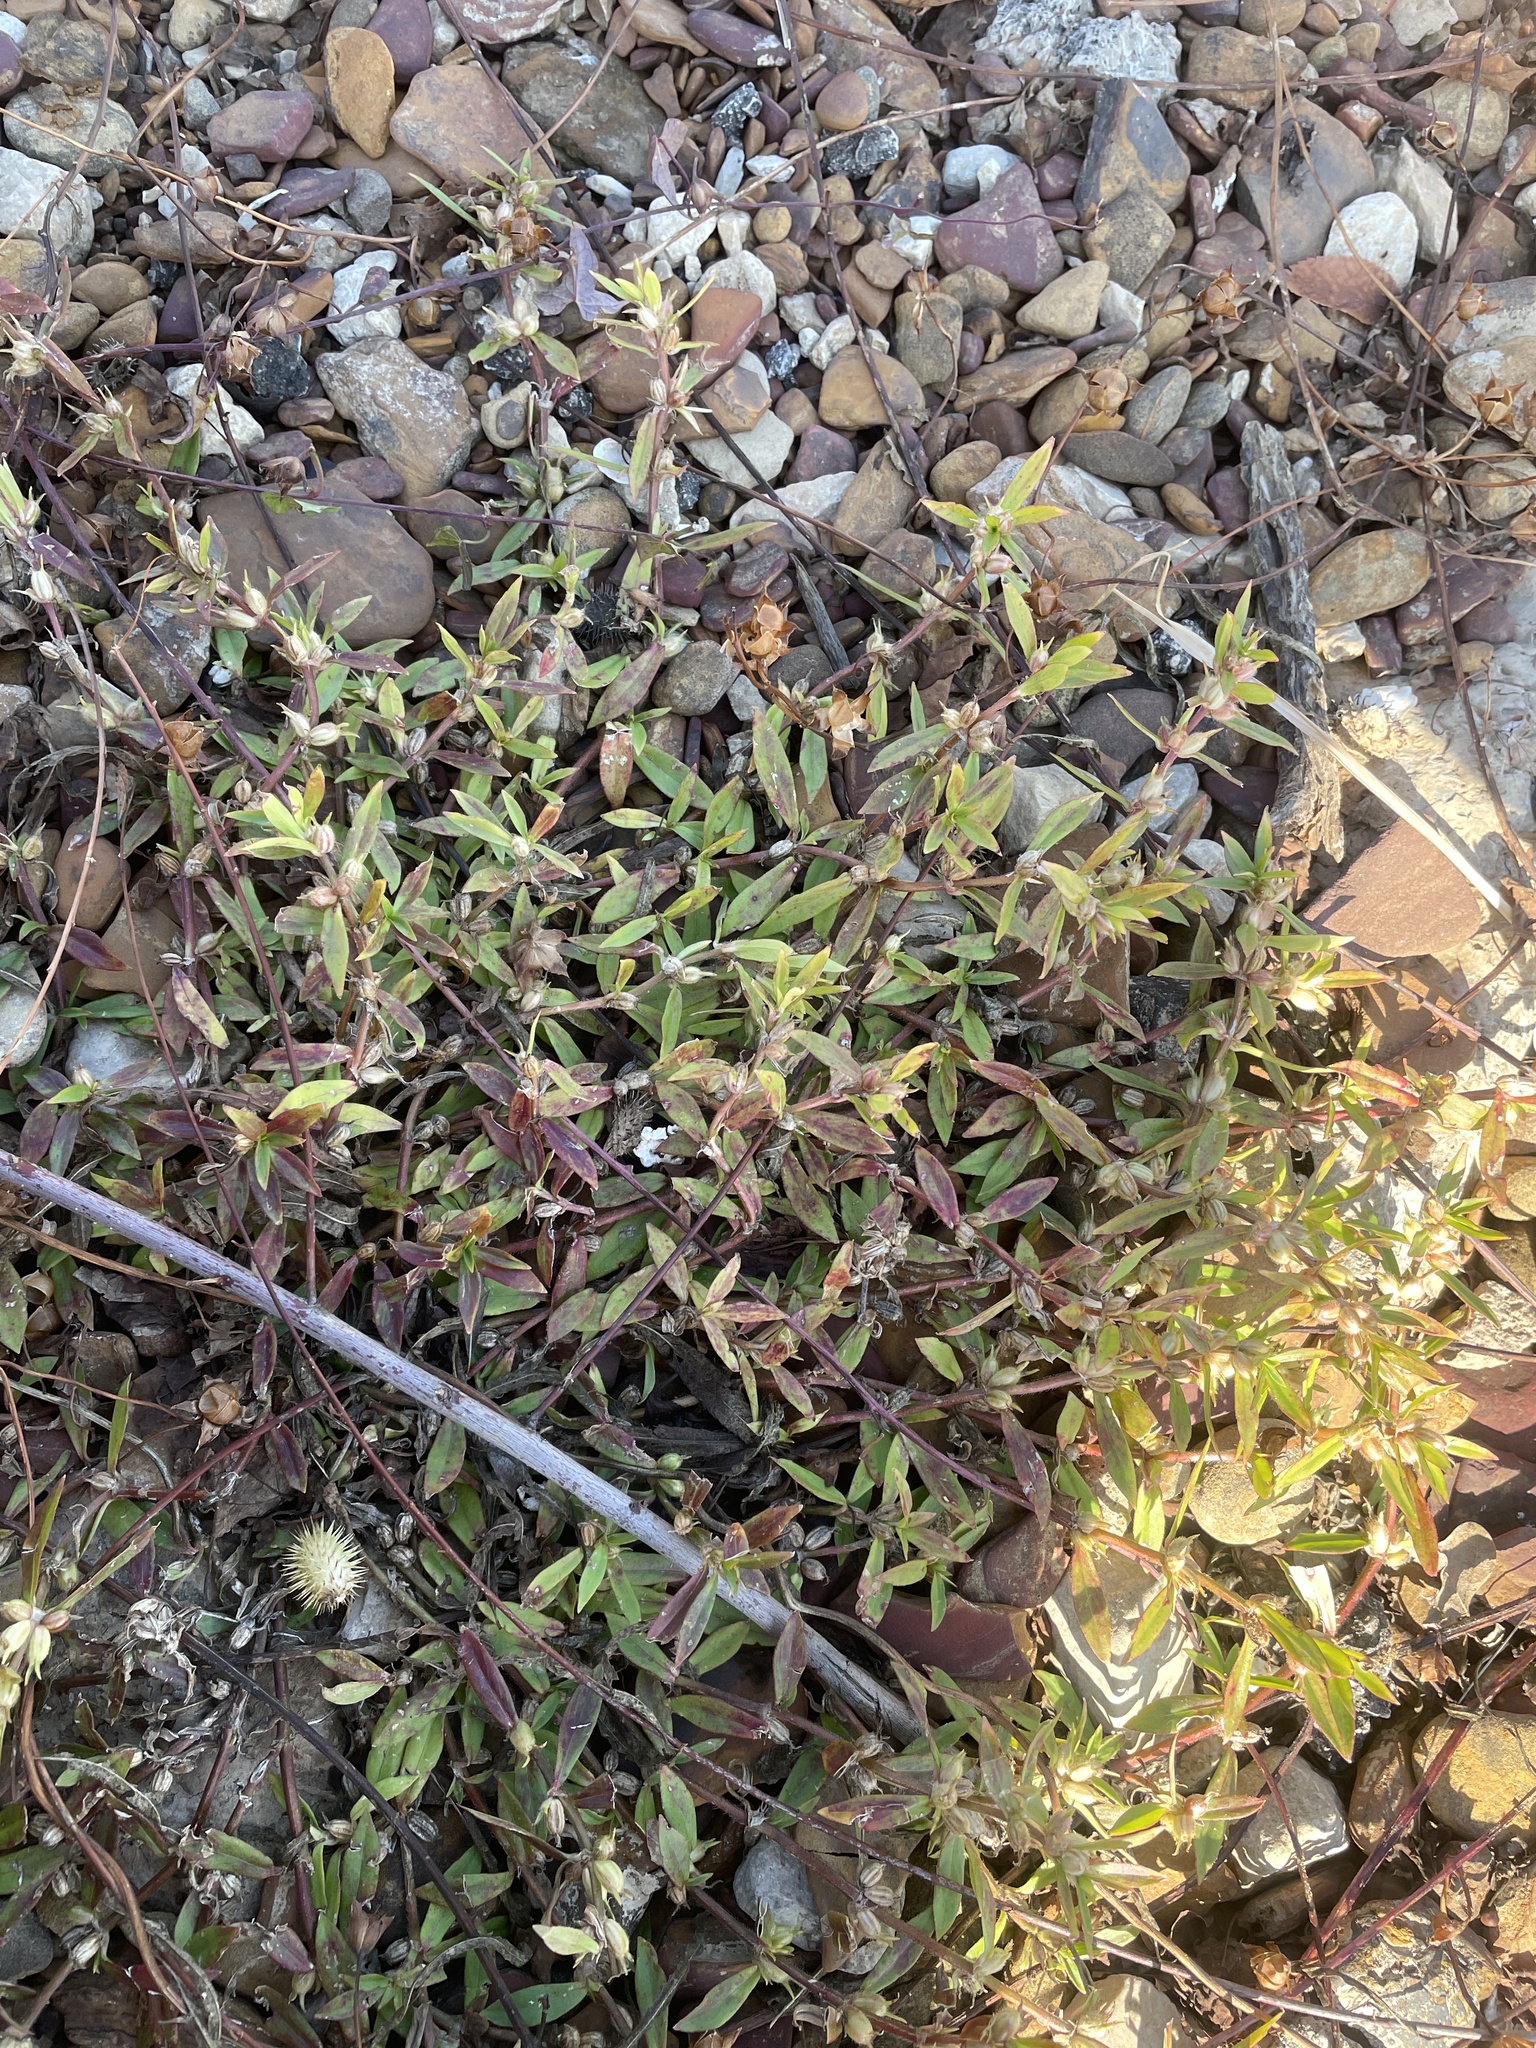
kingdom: Plantae
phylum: Tracheophyta
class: Magnoliopsida
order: Gentianales
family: Rubiaceae
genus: Diodia
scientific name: Diodia virginiana
